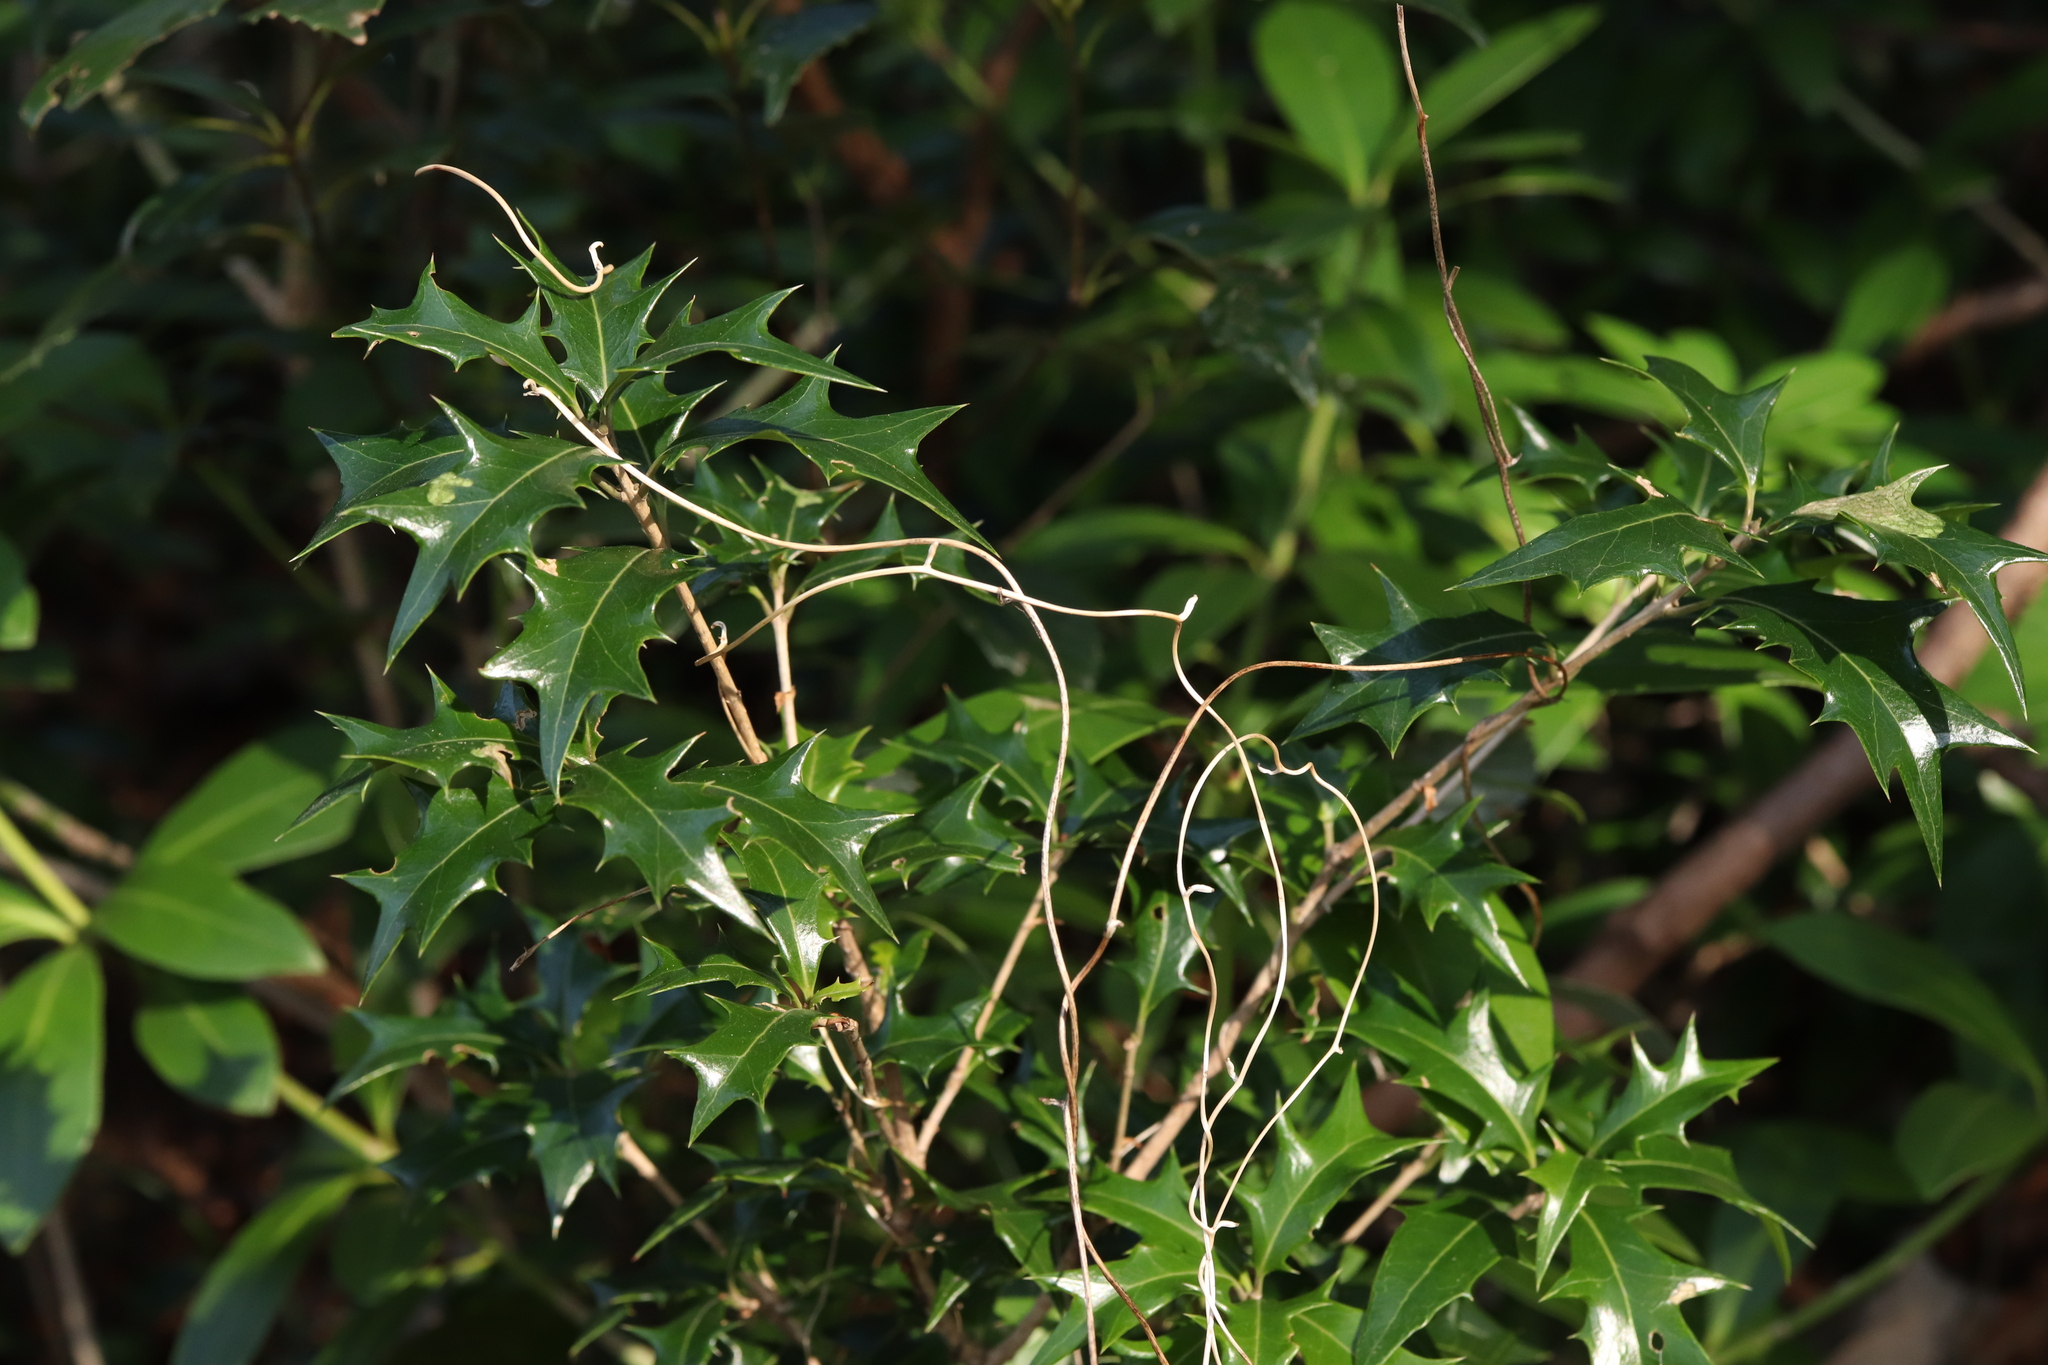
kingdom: Plantae
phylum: Tracheophyta
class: Magnoliopsida
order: Lamiales
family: Oleaceae
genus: Osmanthus
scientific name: Osmanthus heterophyllus
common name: Holly osmanthus
